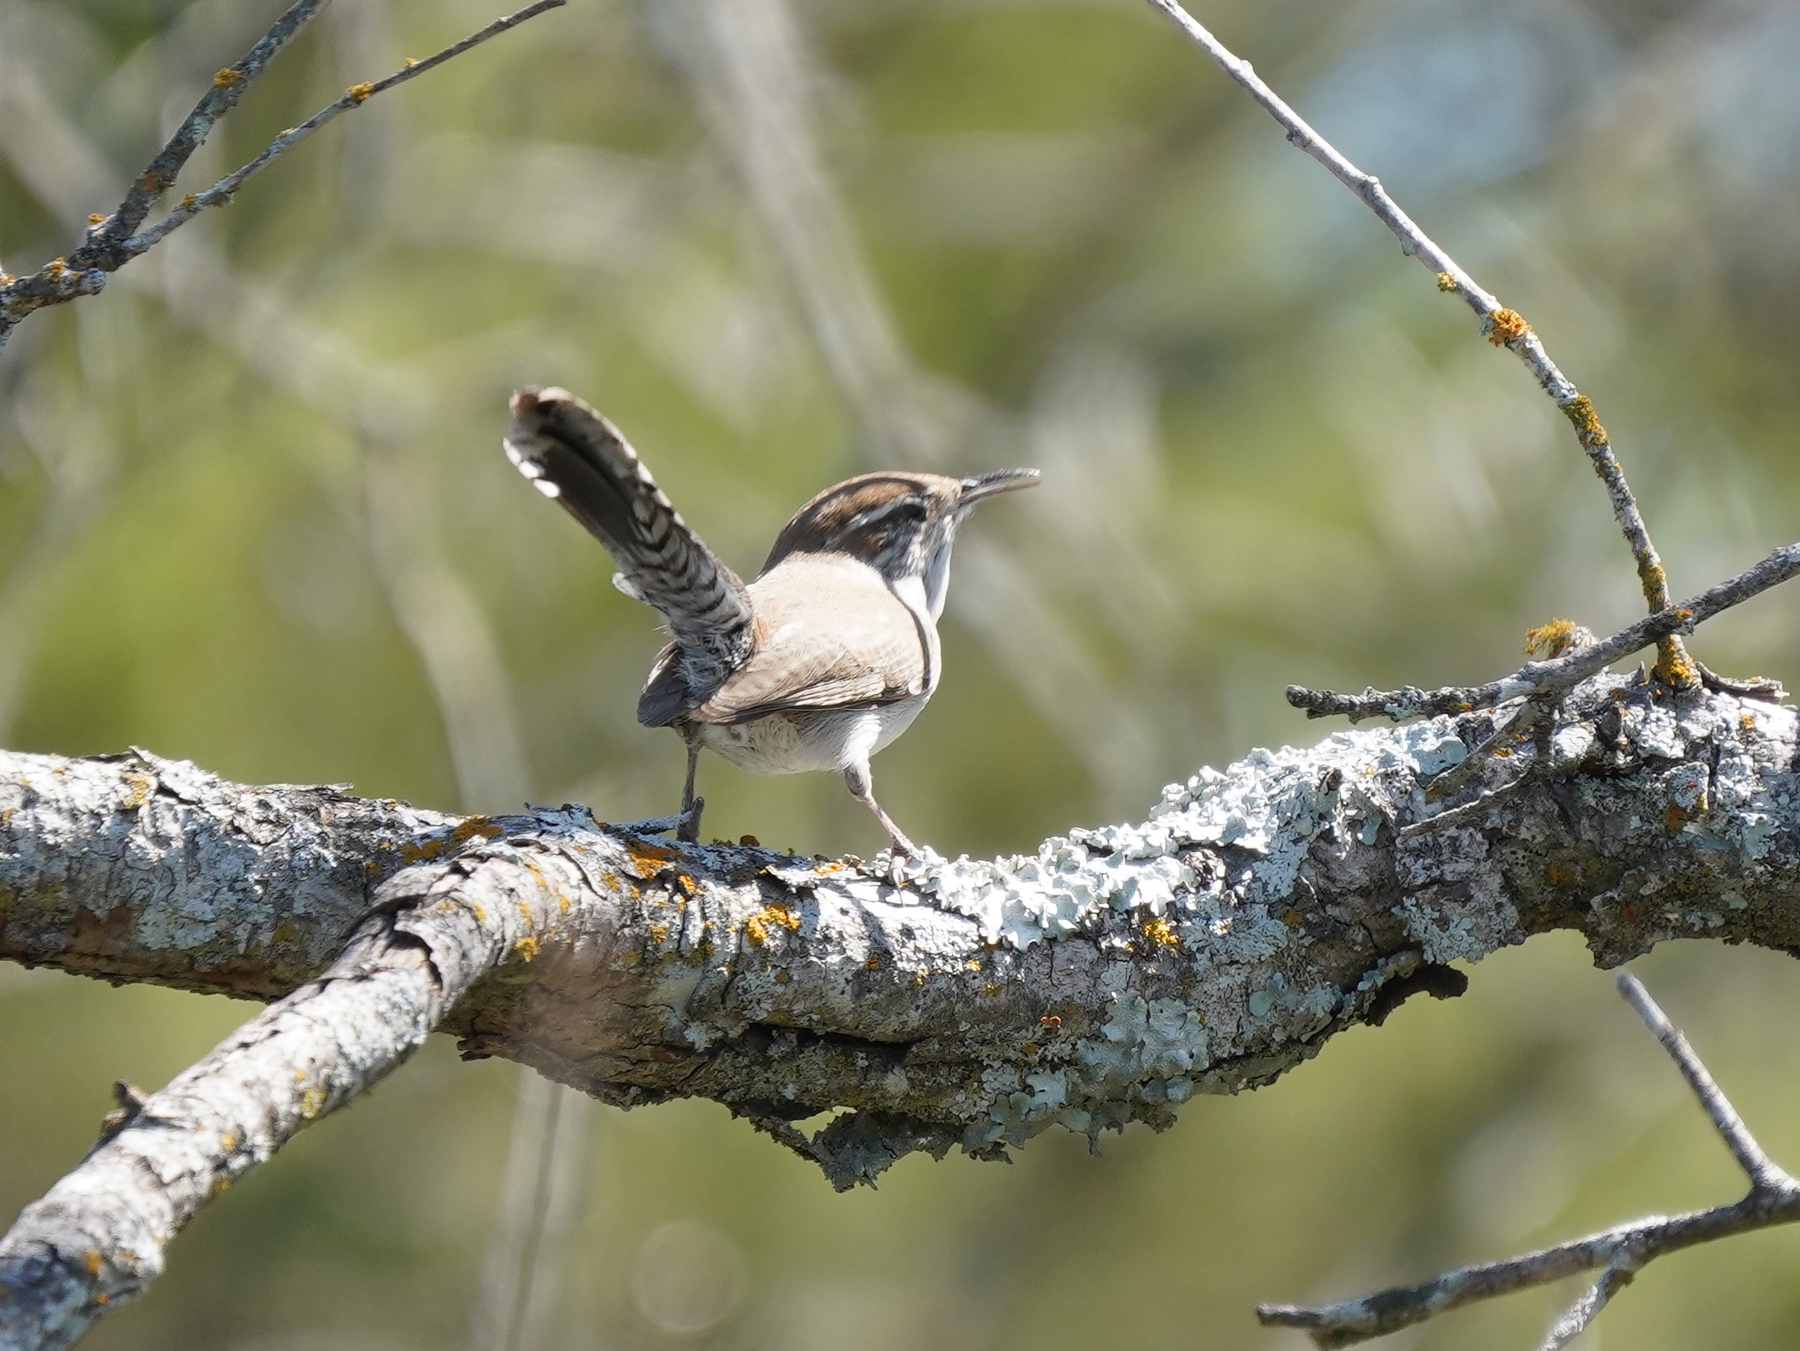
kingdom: Animalia
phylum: Chordata
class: Aves
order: Passeriformes
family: Troglodytidae
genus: Thryomanes
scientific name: Thryomanes bewickii
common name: Bewick's wren
